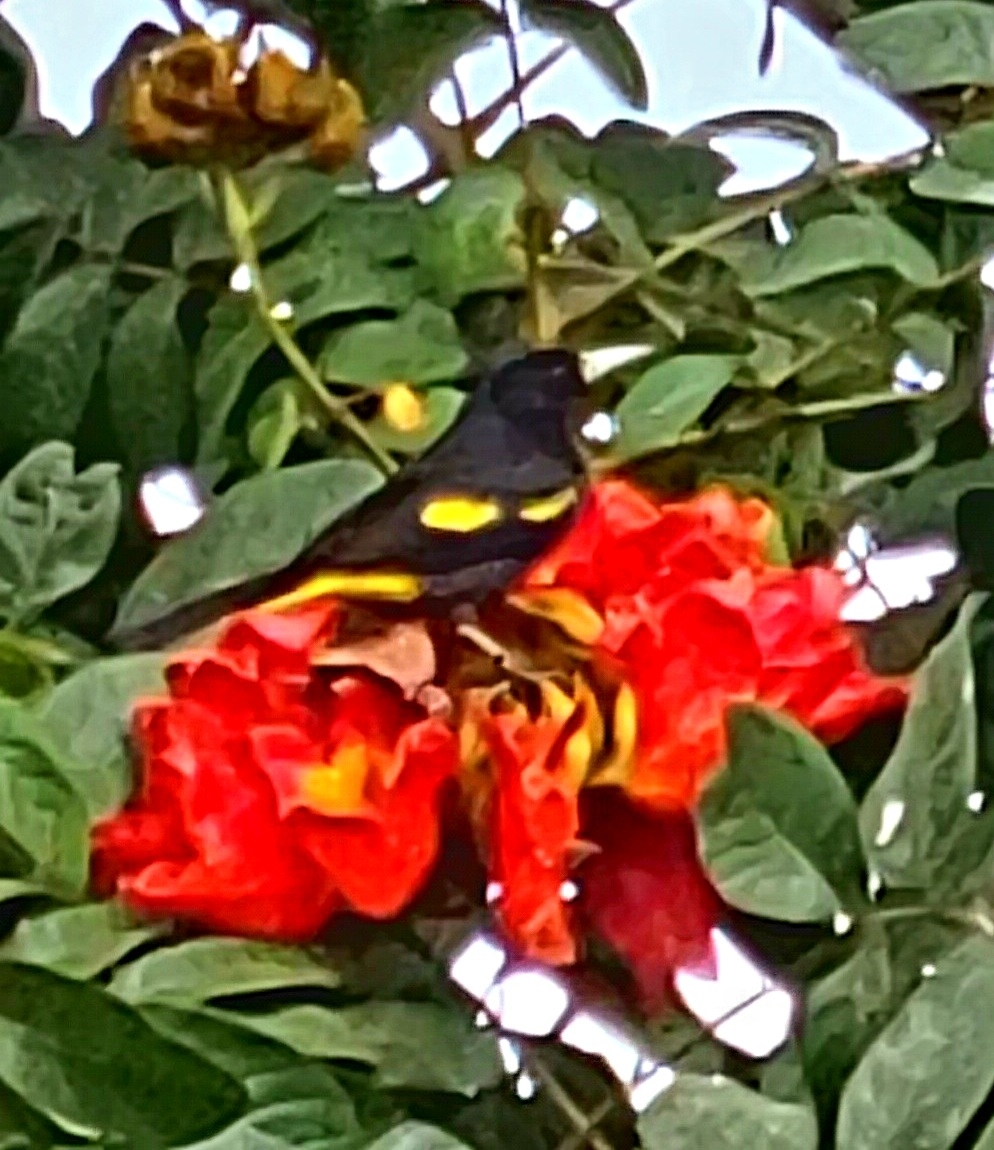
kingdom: Animalia
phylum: Chordata
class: Aves
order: Passeriformes
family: Icteridae
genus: Cacicus
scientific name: Cacicus melanicterus
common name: Yellow-winged cacique
